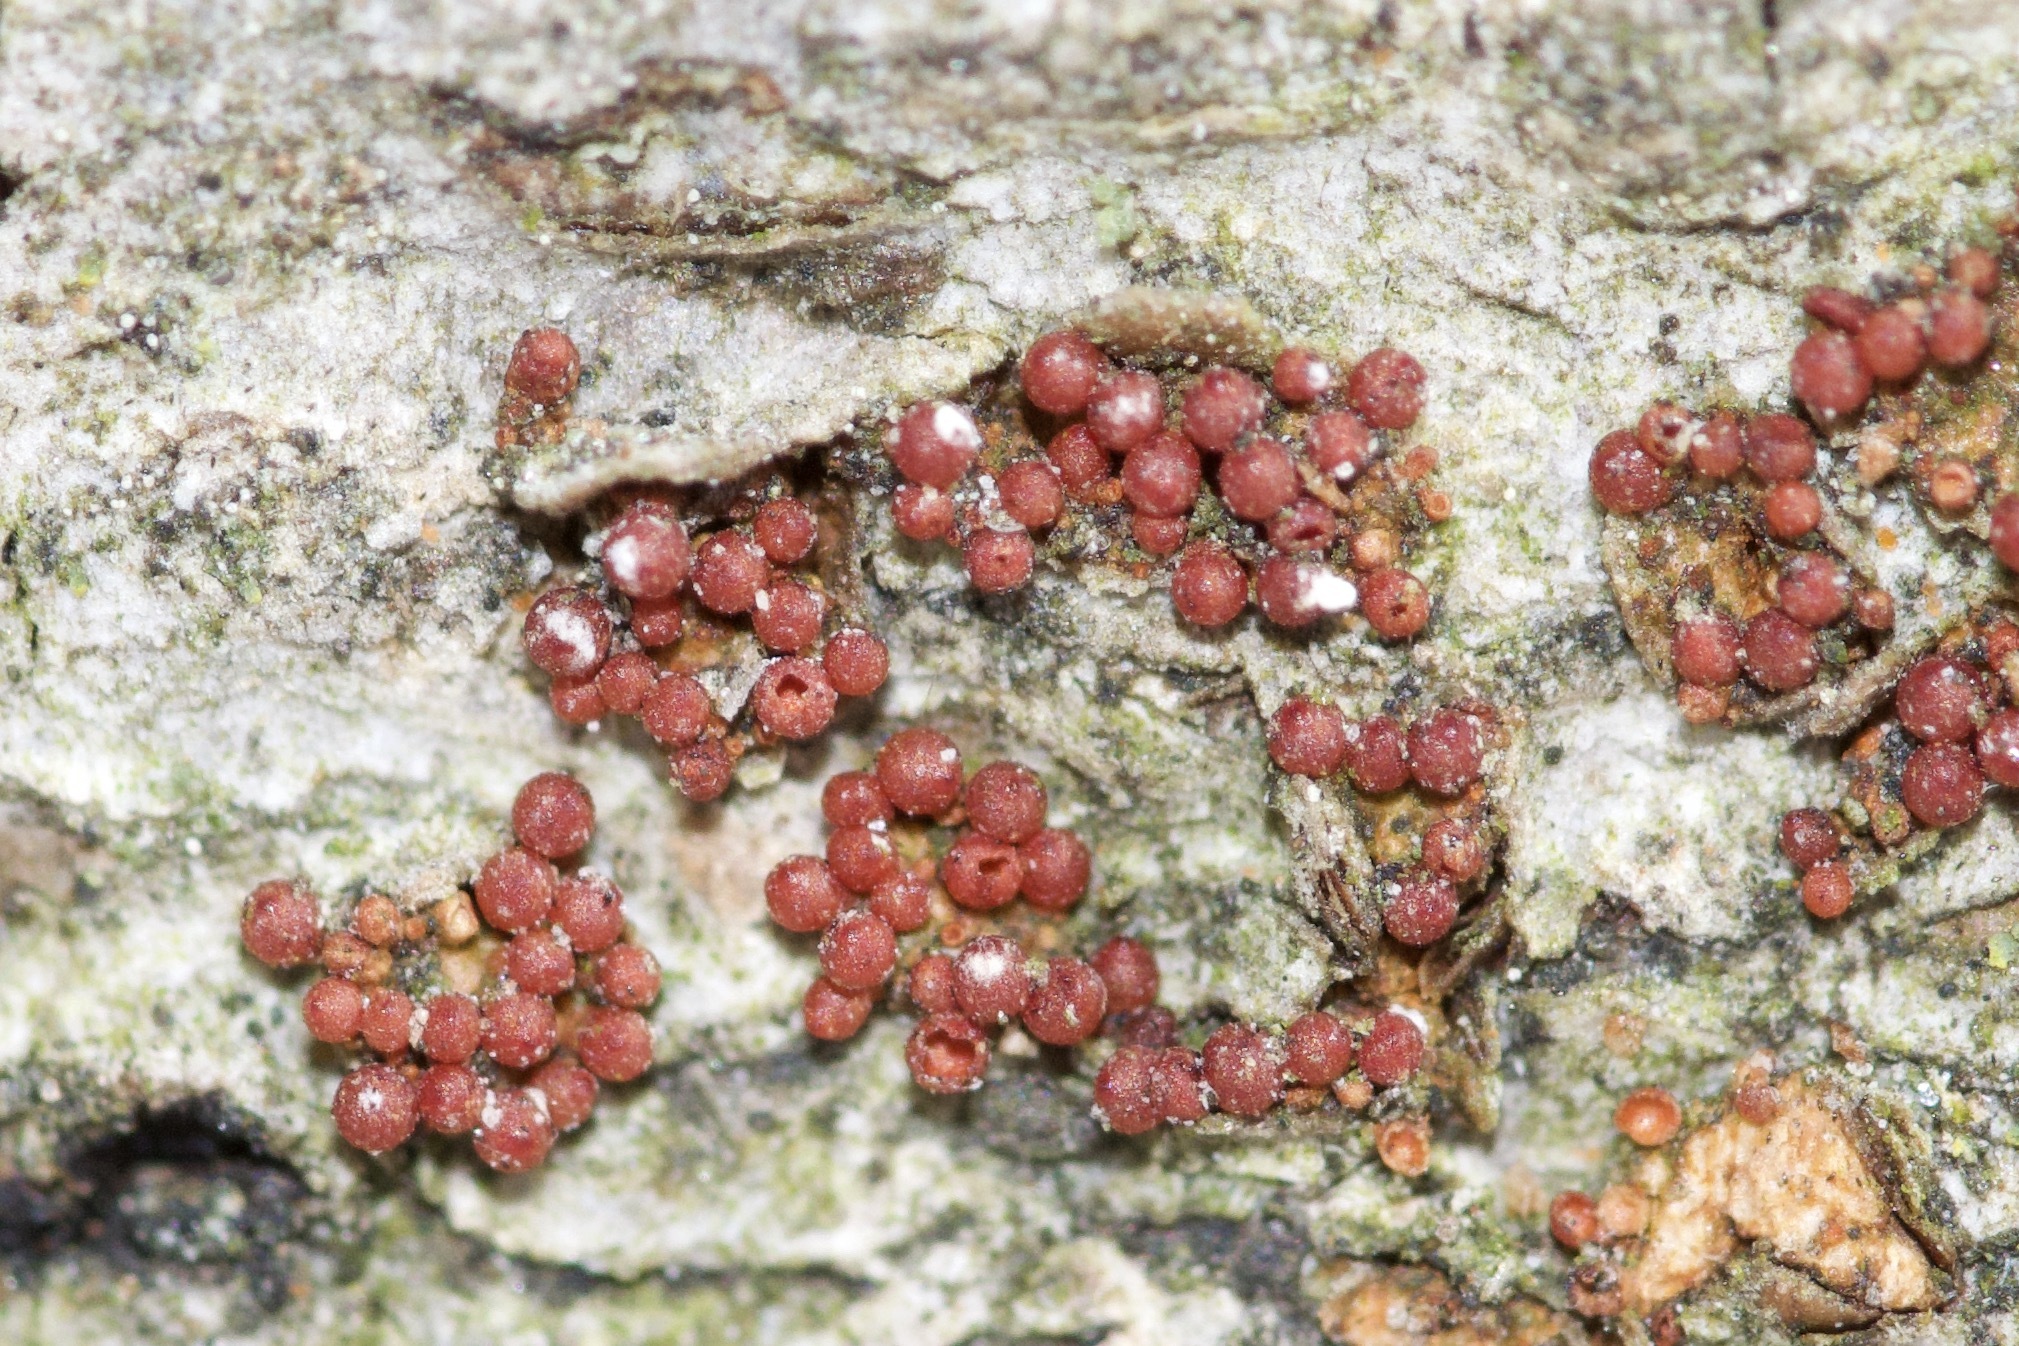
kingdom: Fungi
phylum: Ascomycota
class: Sordariomycetes
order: Hypocreales
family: Nectriaceae
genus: Neonectria
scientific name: Neonectria faginata
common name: Beech bark canker
